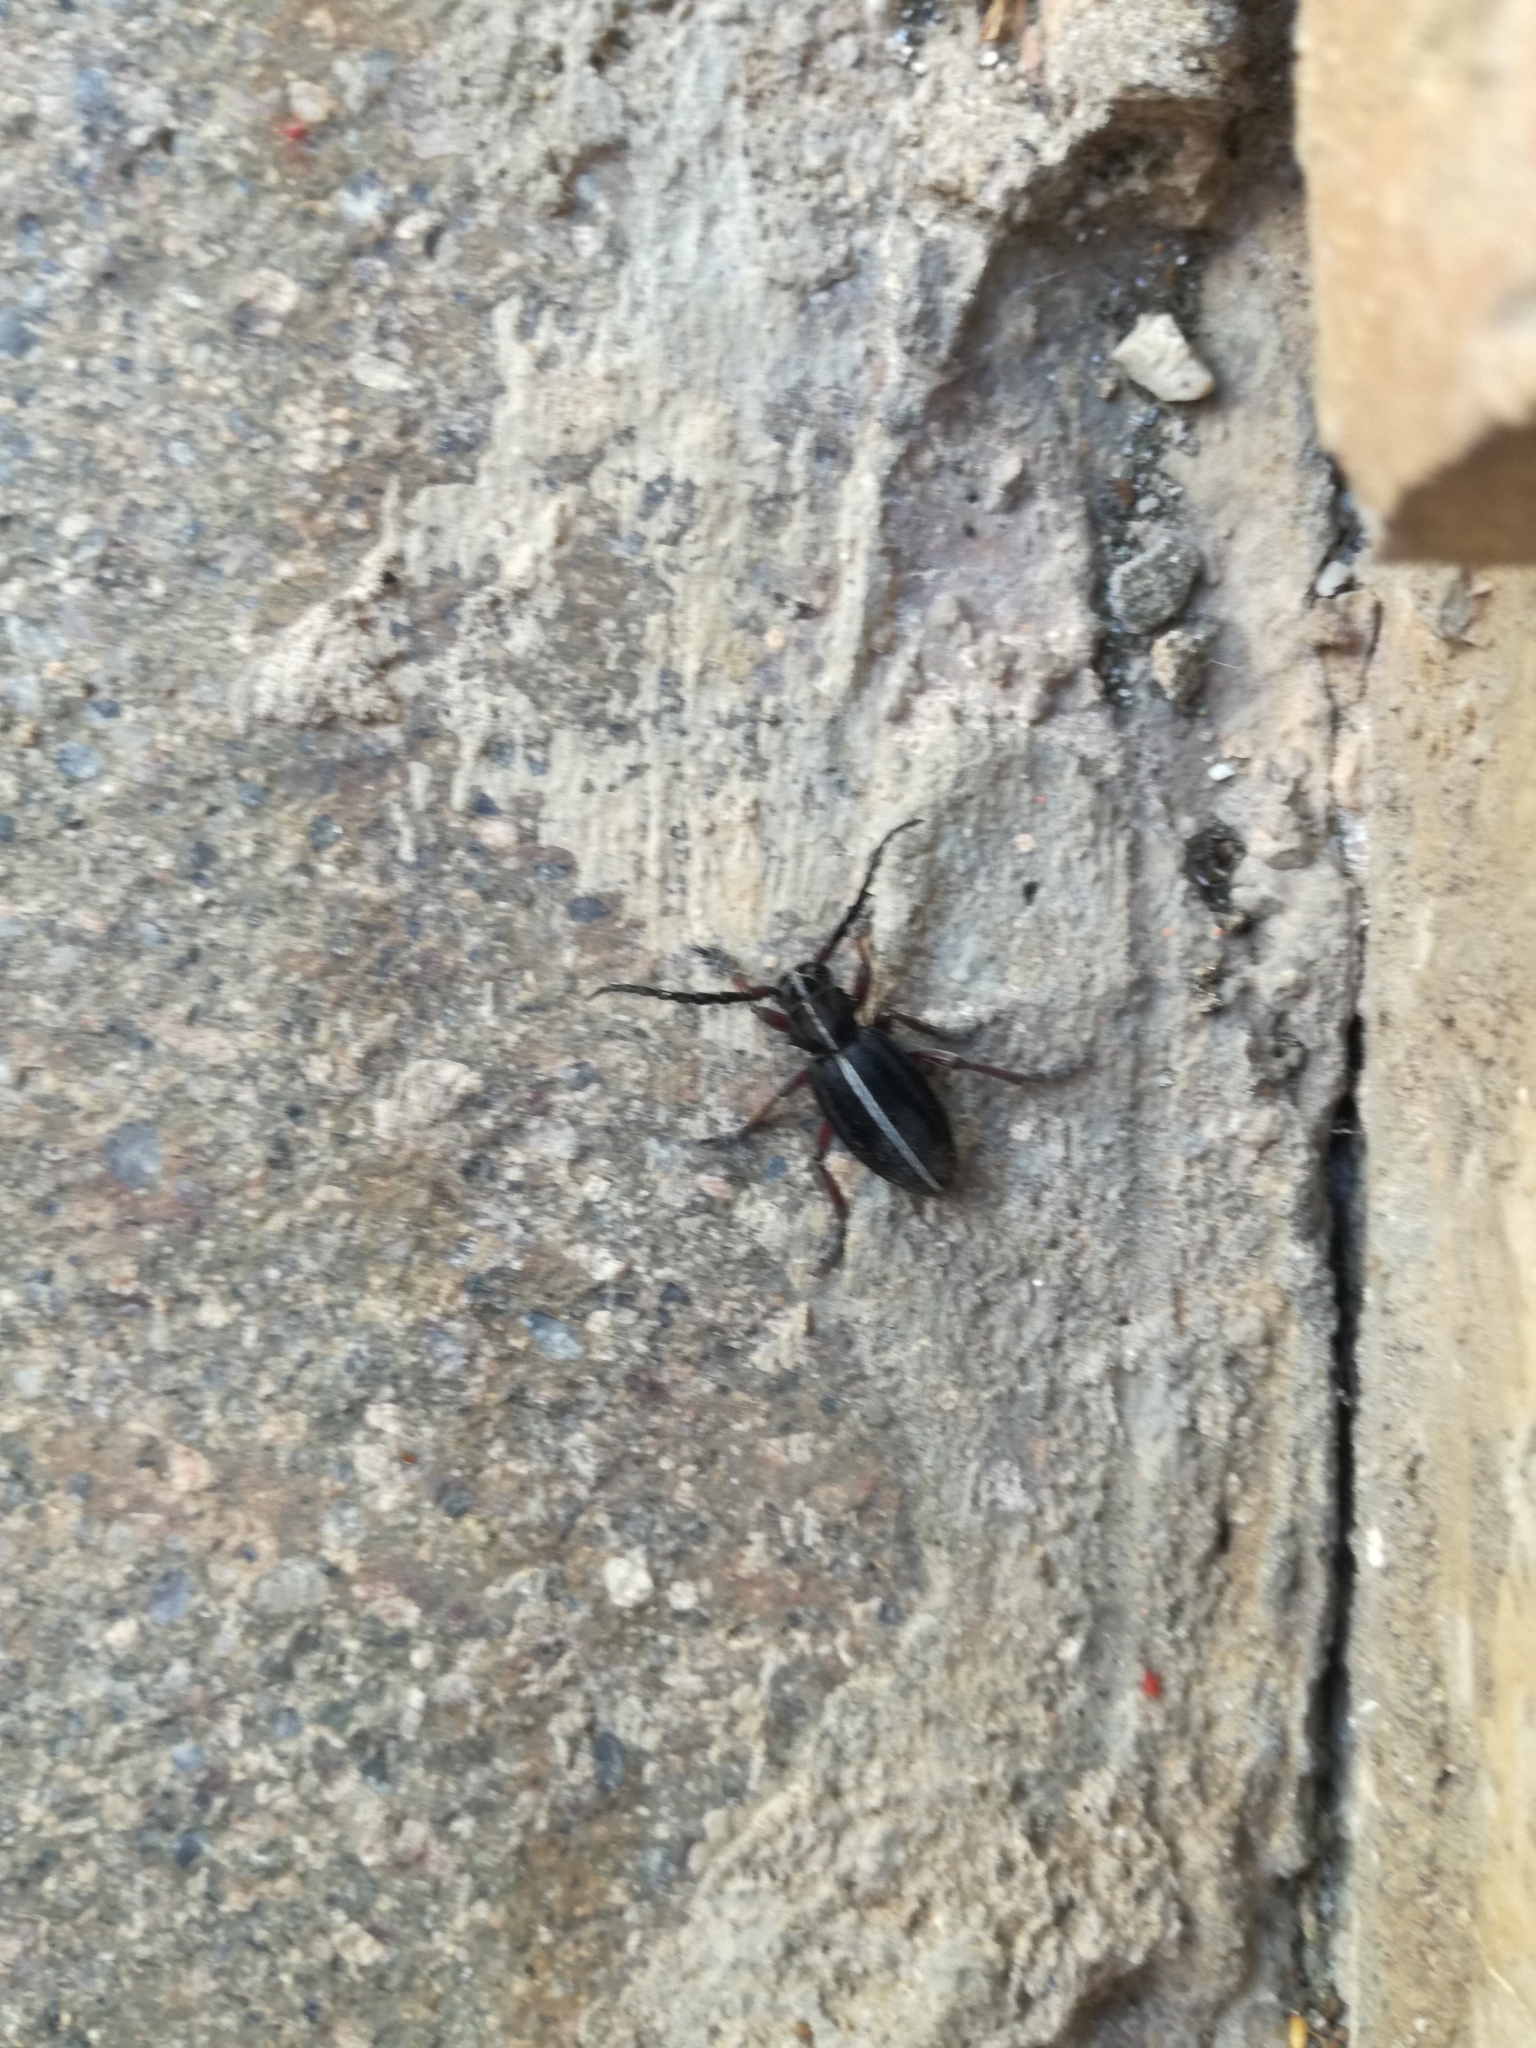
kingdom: Animalia
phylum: Arthropoda
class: Insecta
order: Coleoptera
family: Cerambycidae
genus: Dorcadion
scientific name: Dorcadion etruscum
